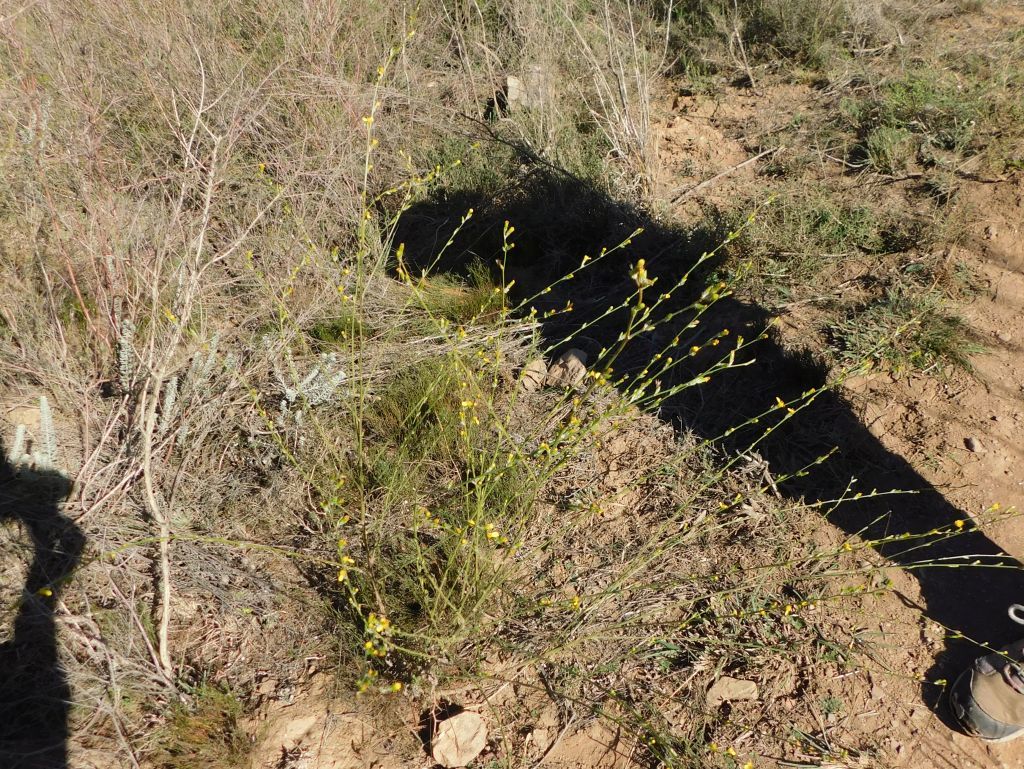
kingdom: Plantae
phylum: Tracheophyta
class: Magnoliopsida
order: Asterales
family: Asteraceae
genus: Senecio
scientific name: Senecio pubigerus
